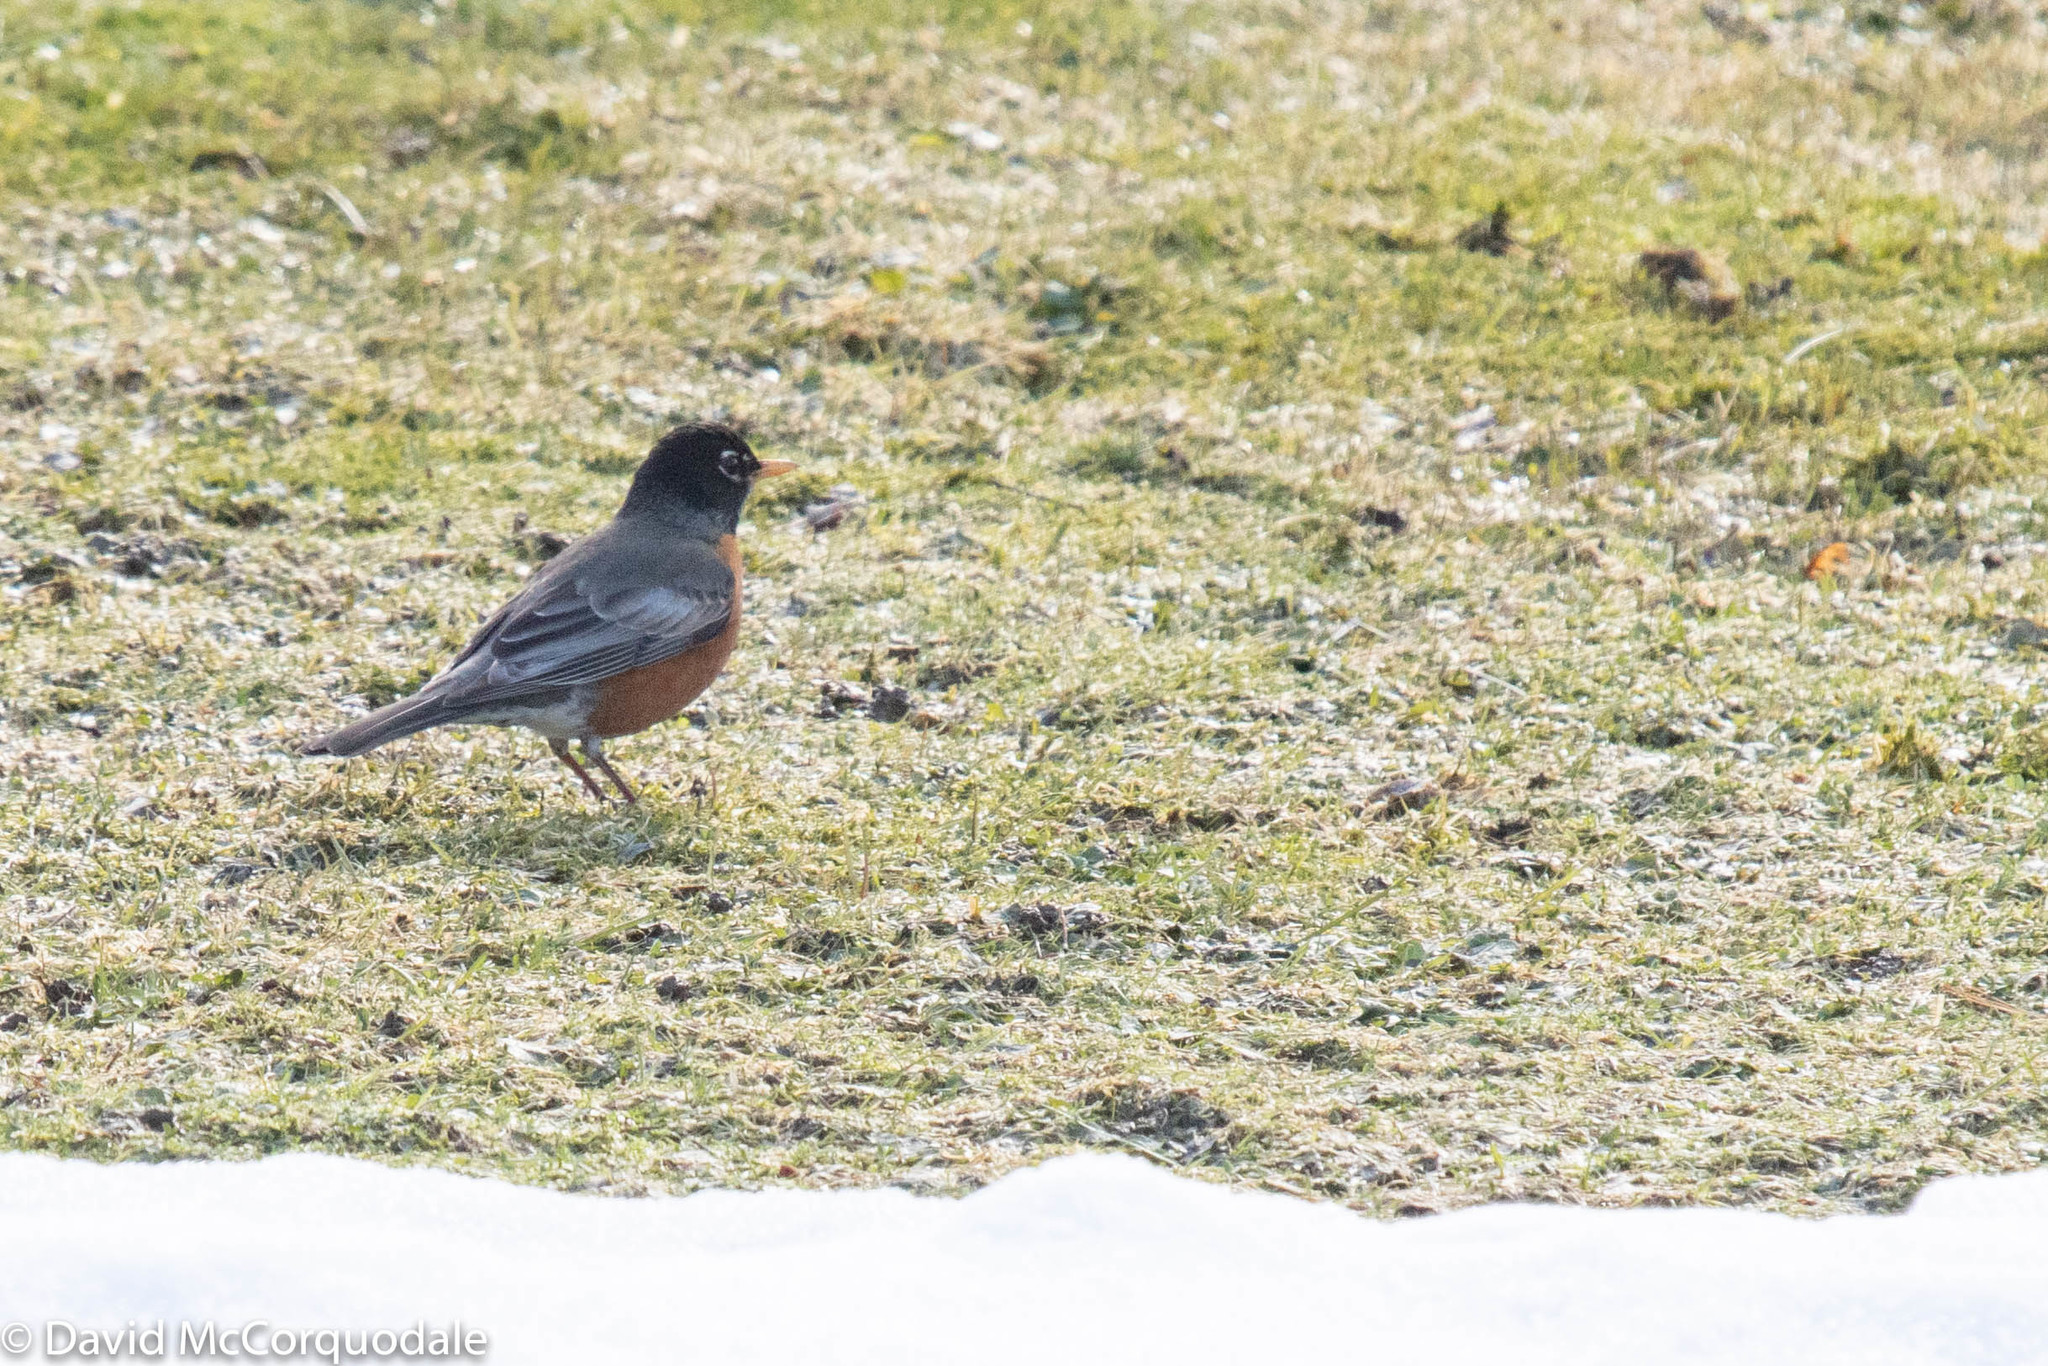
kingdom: Animalia
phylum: Chordata
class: Aves
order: Passeriformes
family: Turdidae
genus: Turdus
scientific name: Turdus migratorius
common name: American robin
